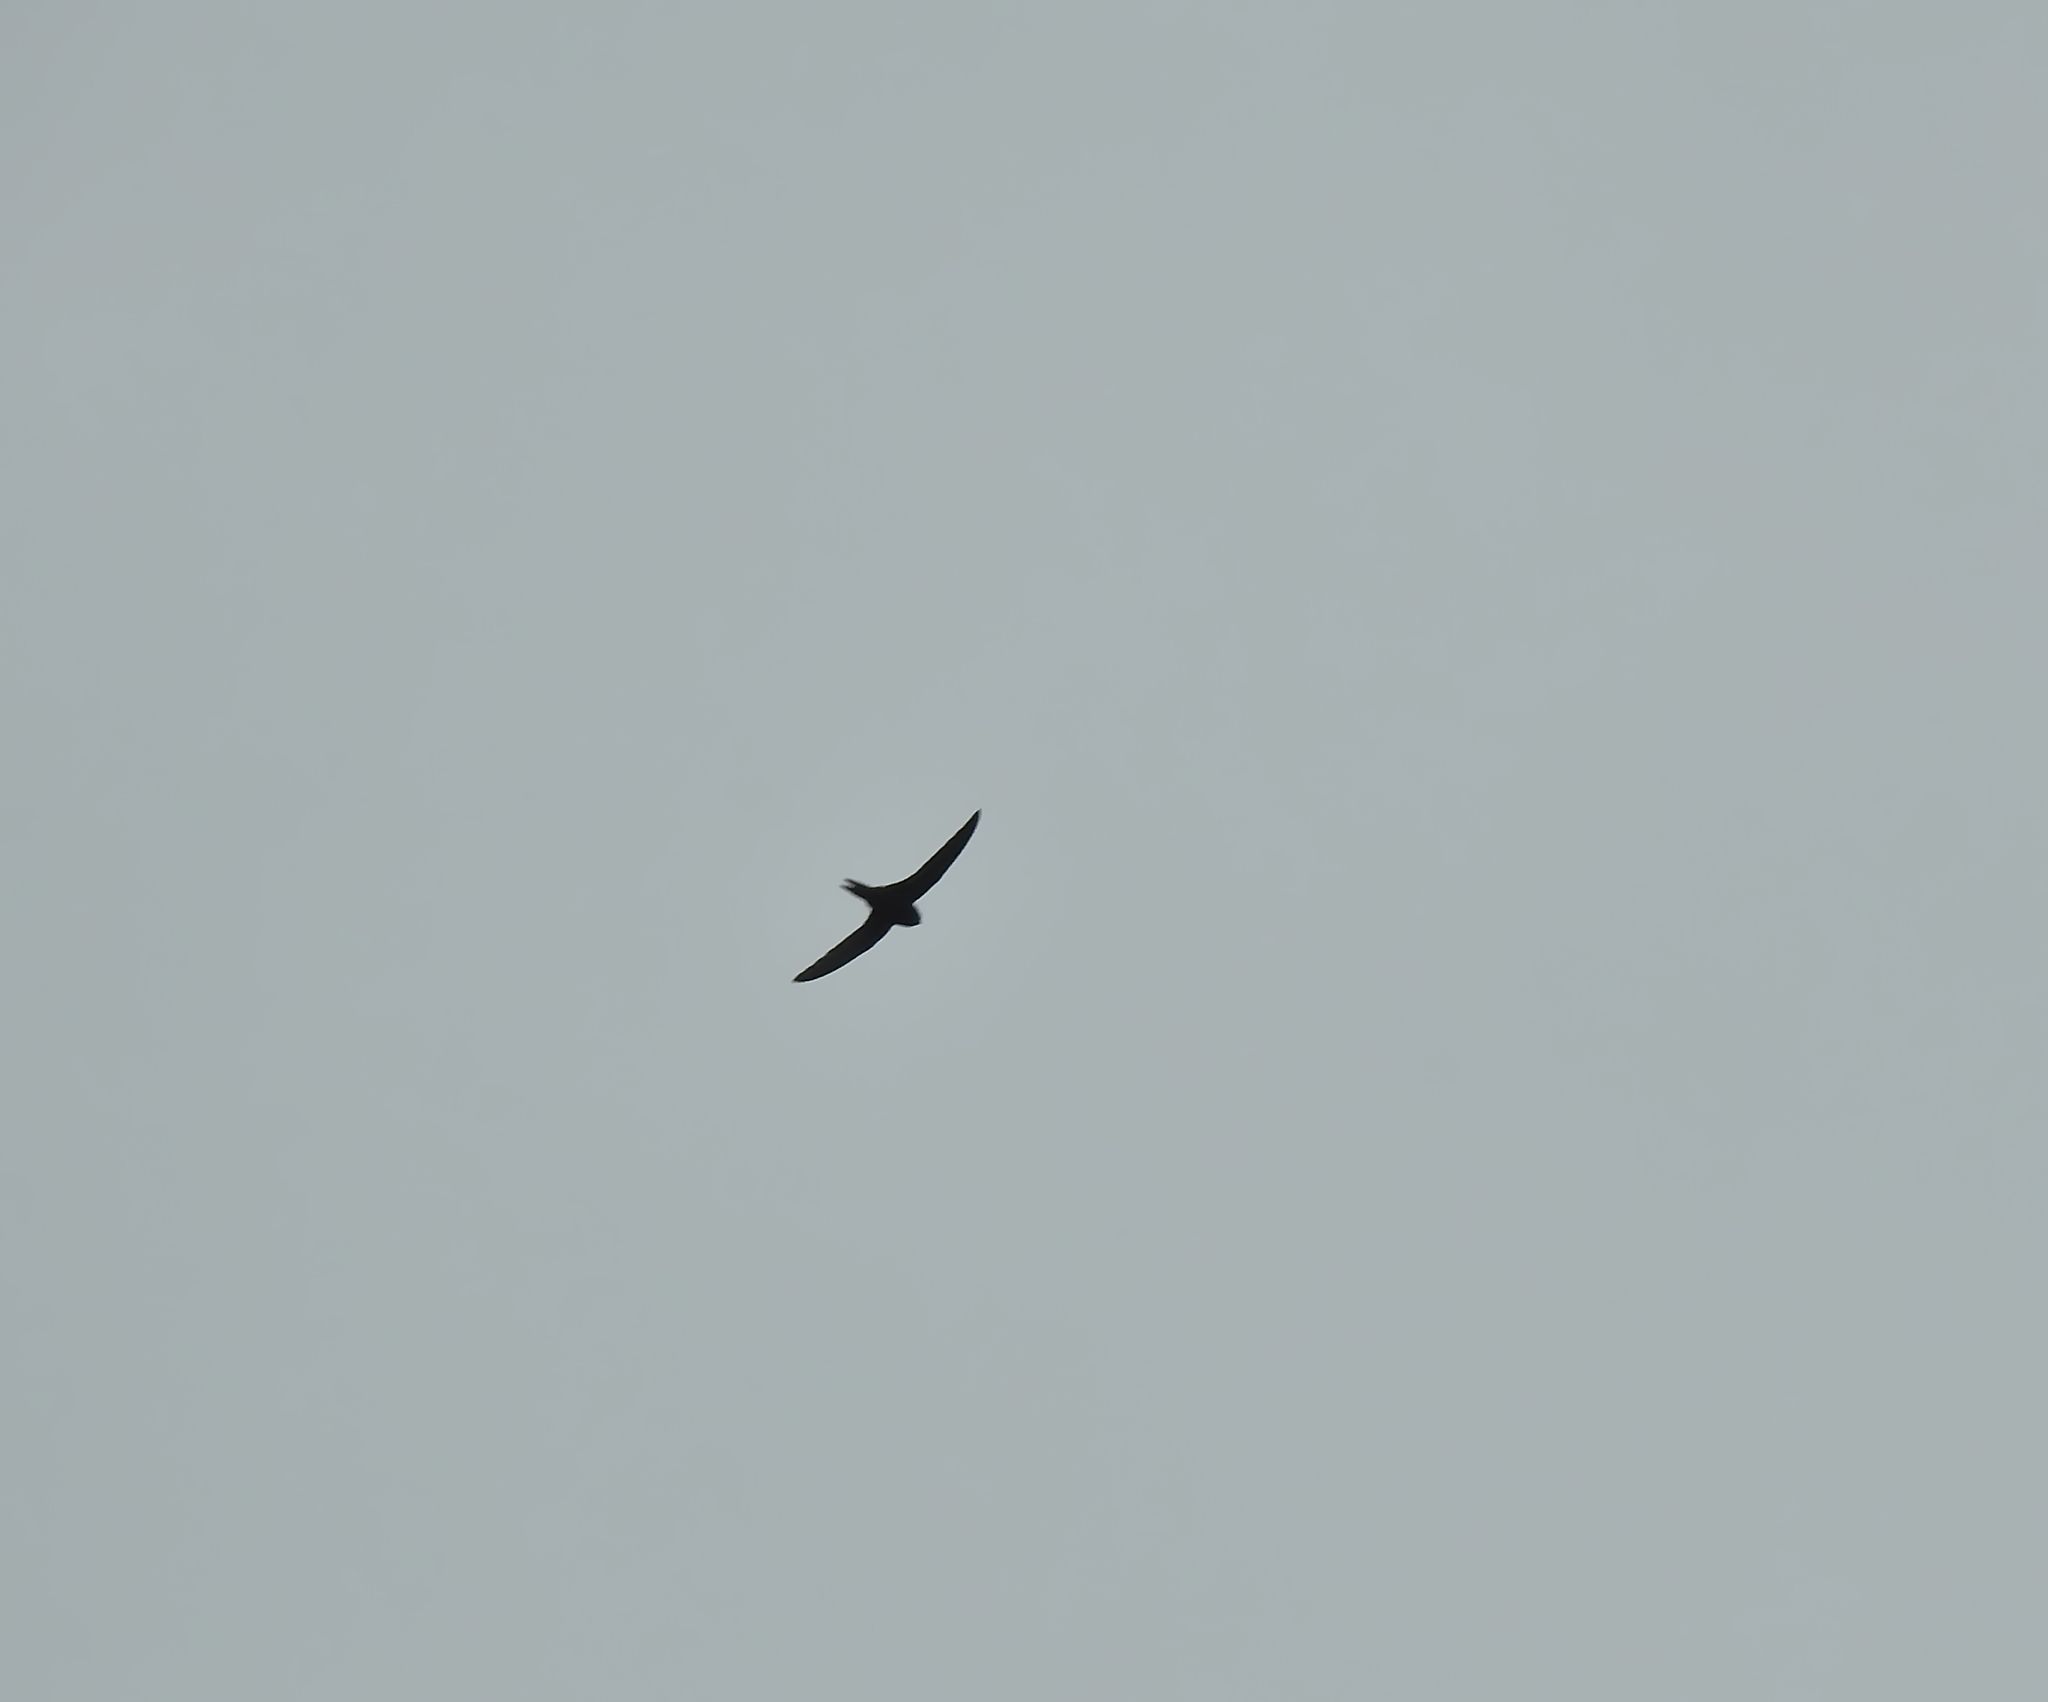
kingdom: Animalia
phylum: Chordata
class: Aves
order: Apodiformes
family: Apodidae
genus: Apus
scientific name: Apus apus
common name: Common swift
